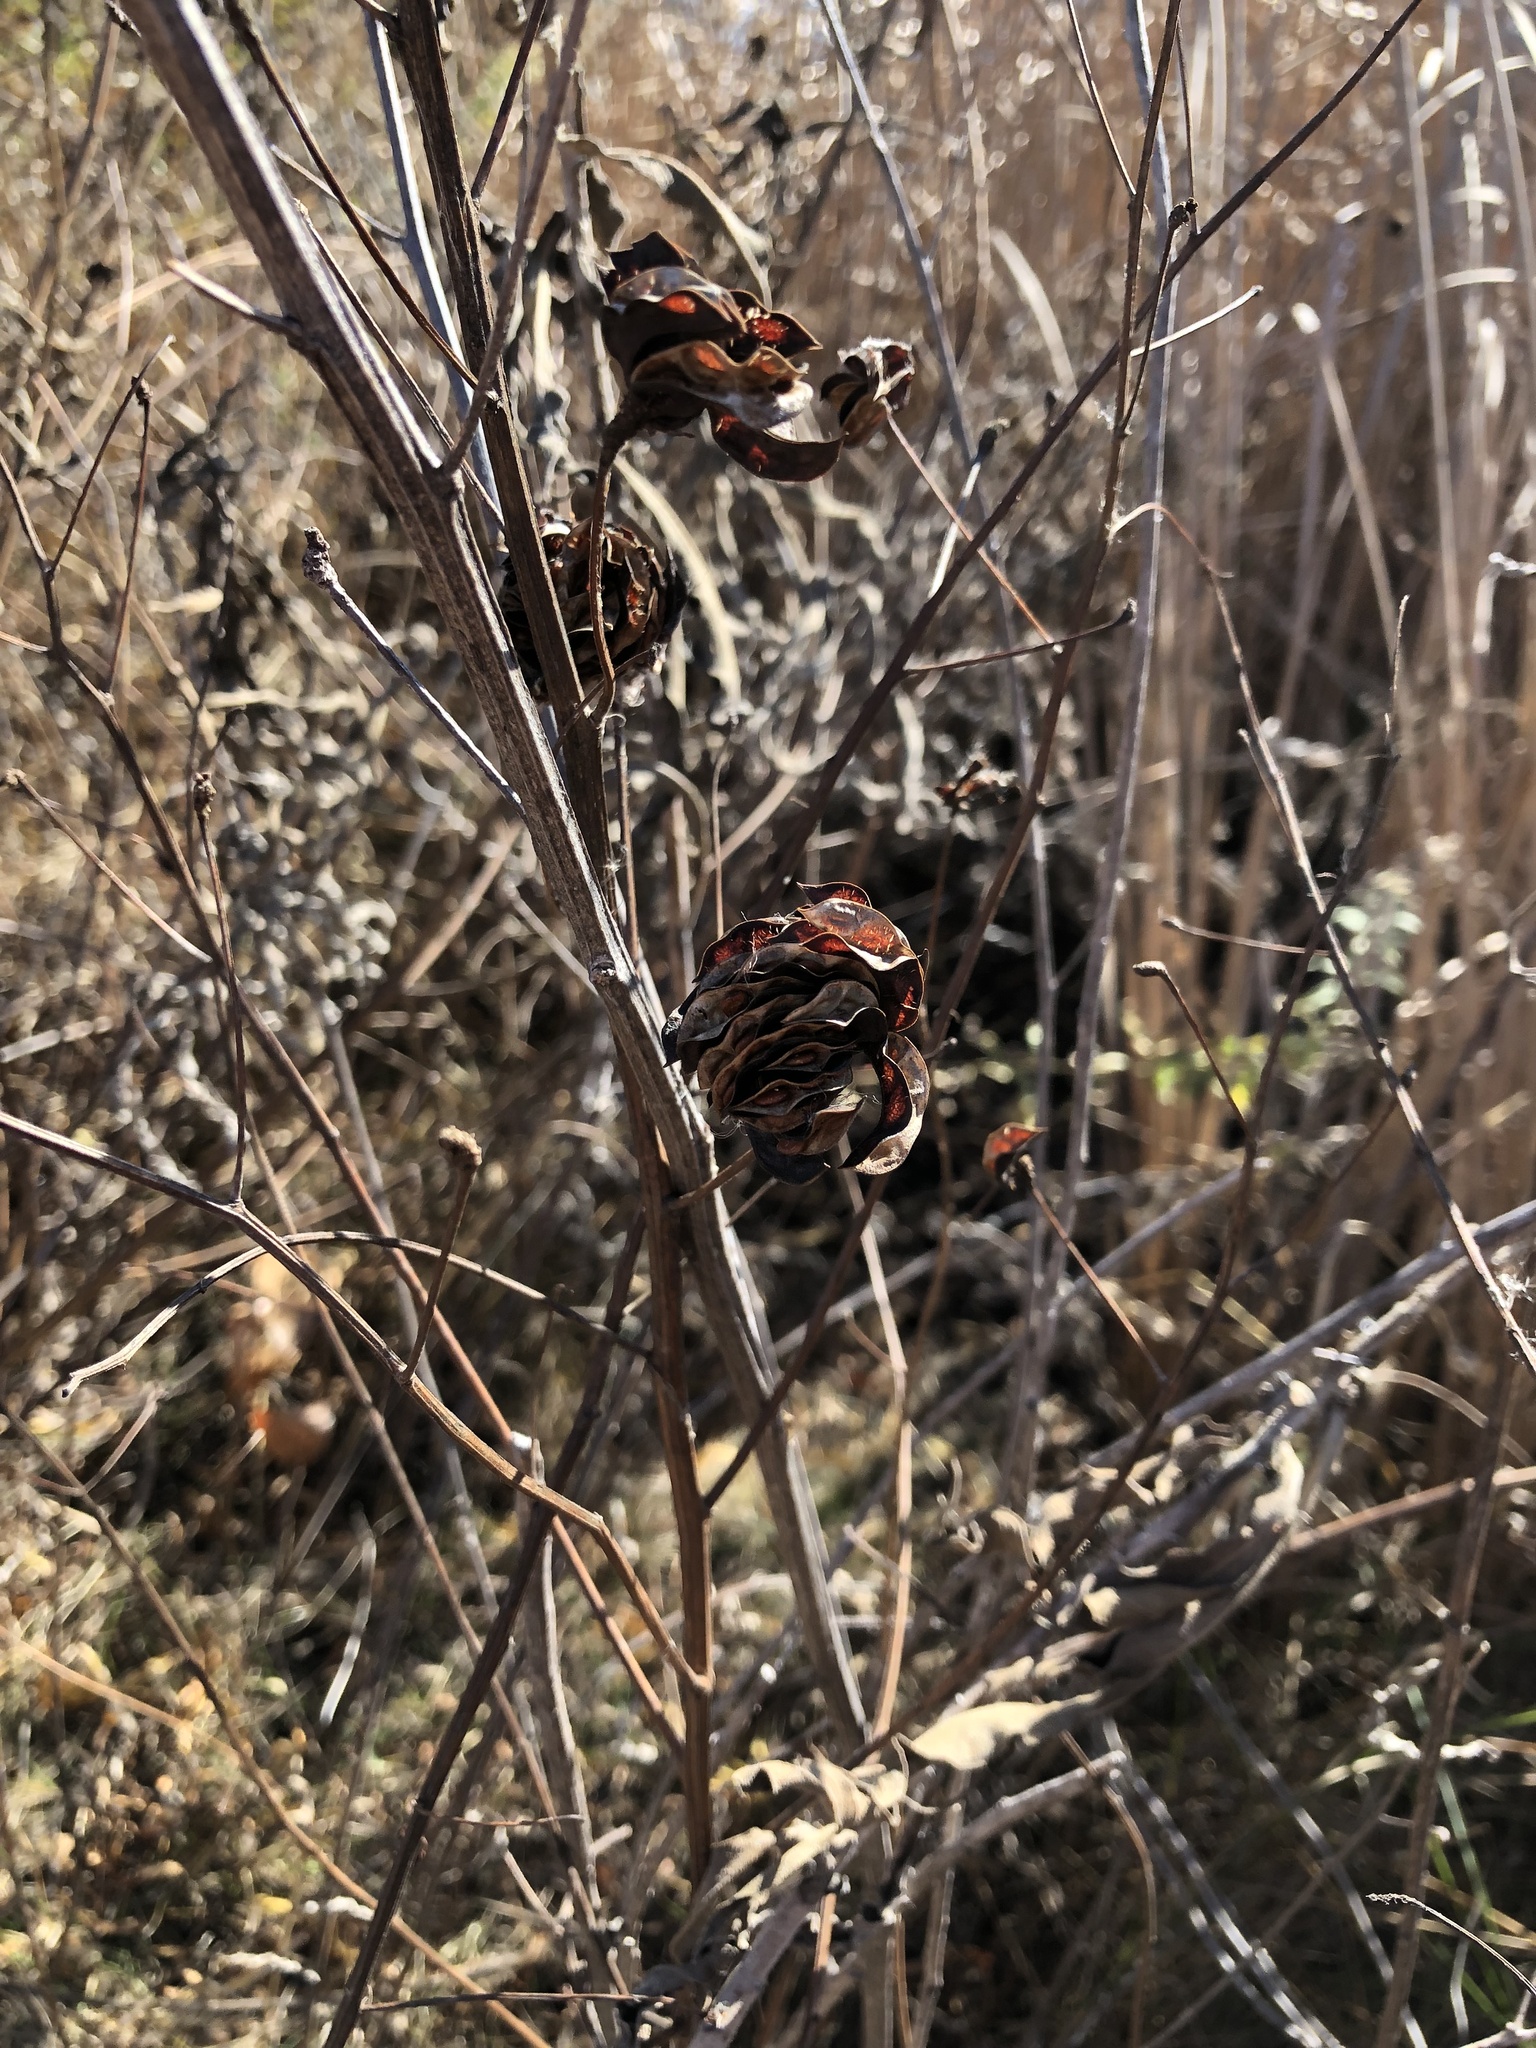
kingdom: Plantae
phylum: Tracheophyta
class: Magnoliopsida
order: Fabales
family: Fabaceae
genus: Desmanthus
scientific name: Desmanthus illinoensis
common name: Illinois bundle-flower
